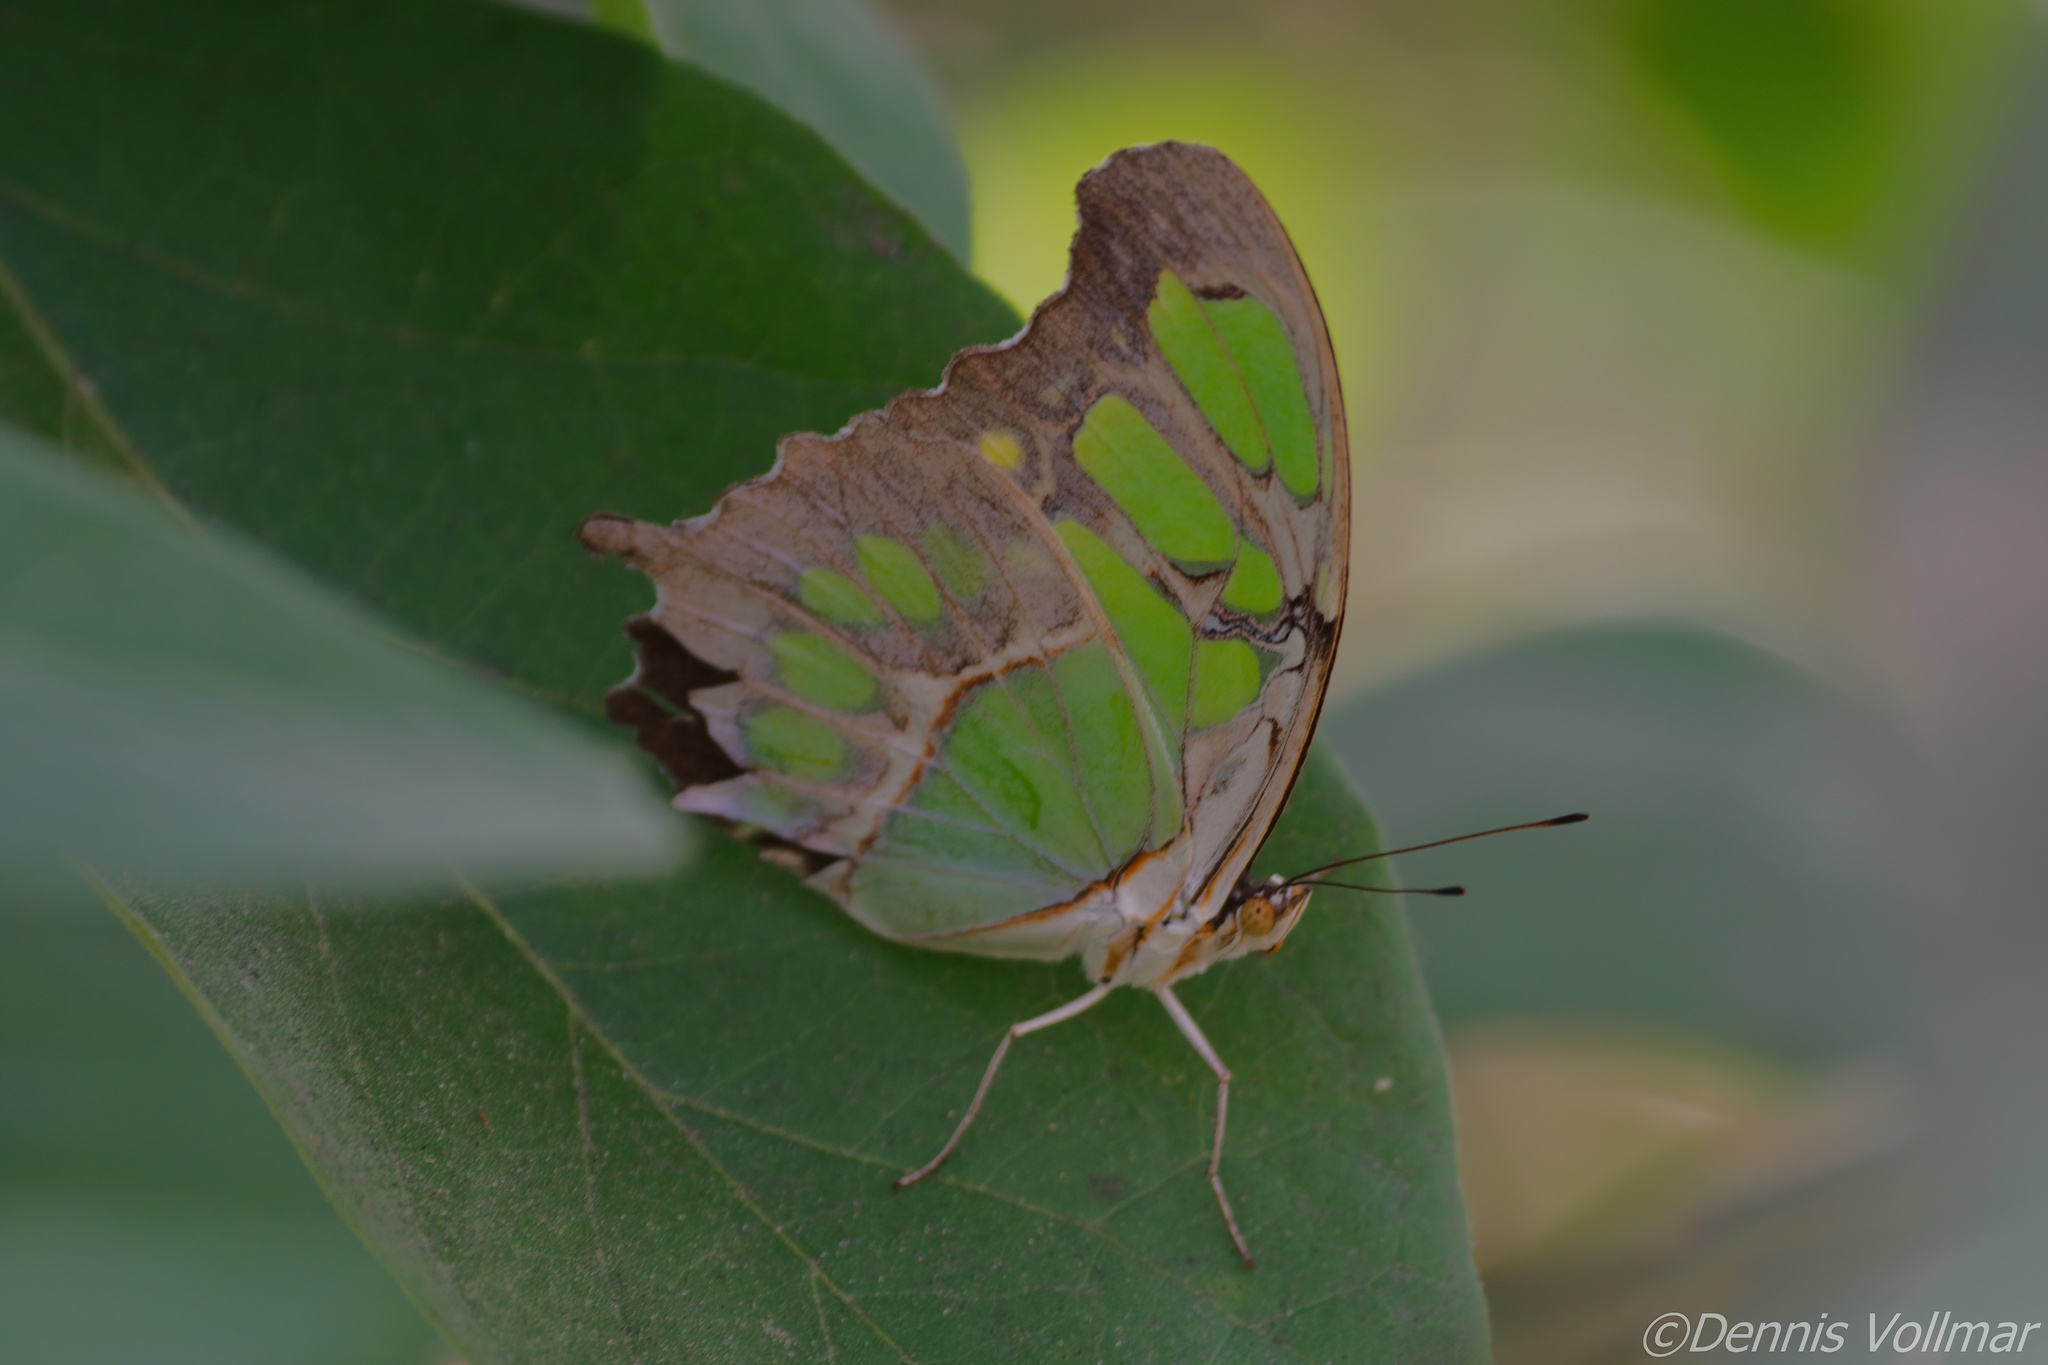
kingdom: Animalia
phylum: Arthropoda
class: Insecta
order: Lepidoptera
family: Nymphalidae
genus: Siproeta
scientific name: Siproeta stelenes
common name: Malachite
